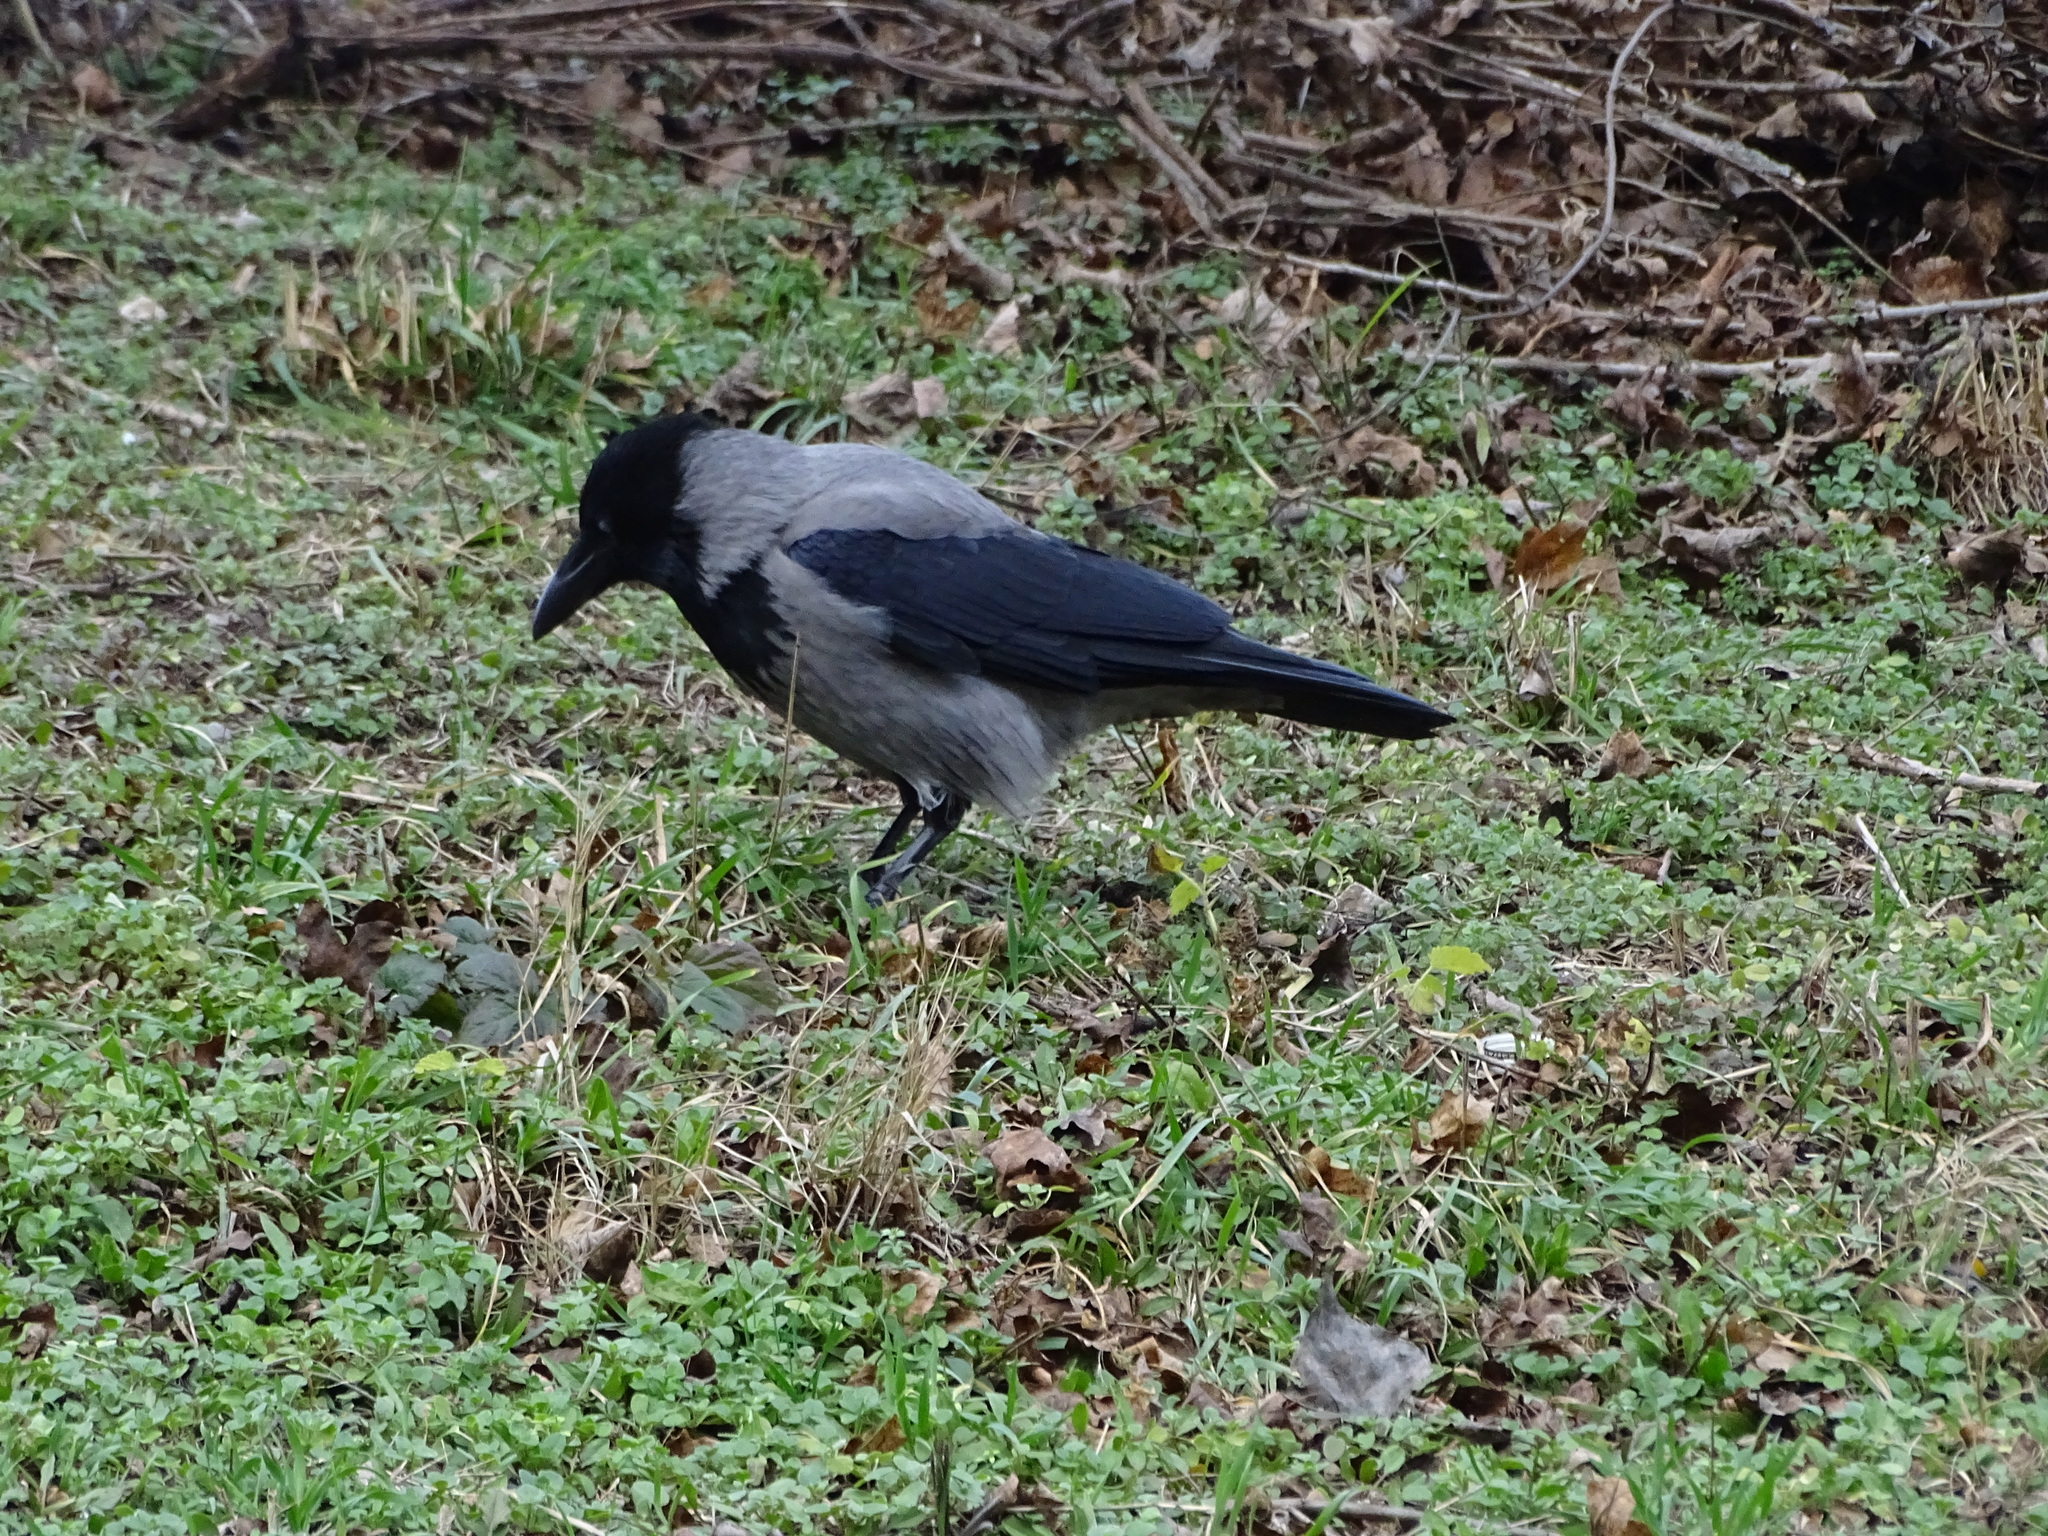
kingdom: Animalia
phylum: Chordata
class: Aves
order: Passeriformes
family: Corvidae
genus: Corvus
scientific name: Corvus cornix
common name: Hooded crow
